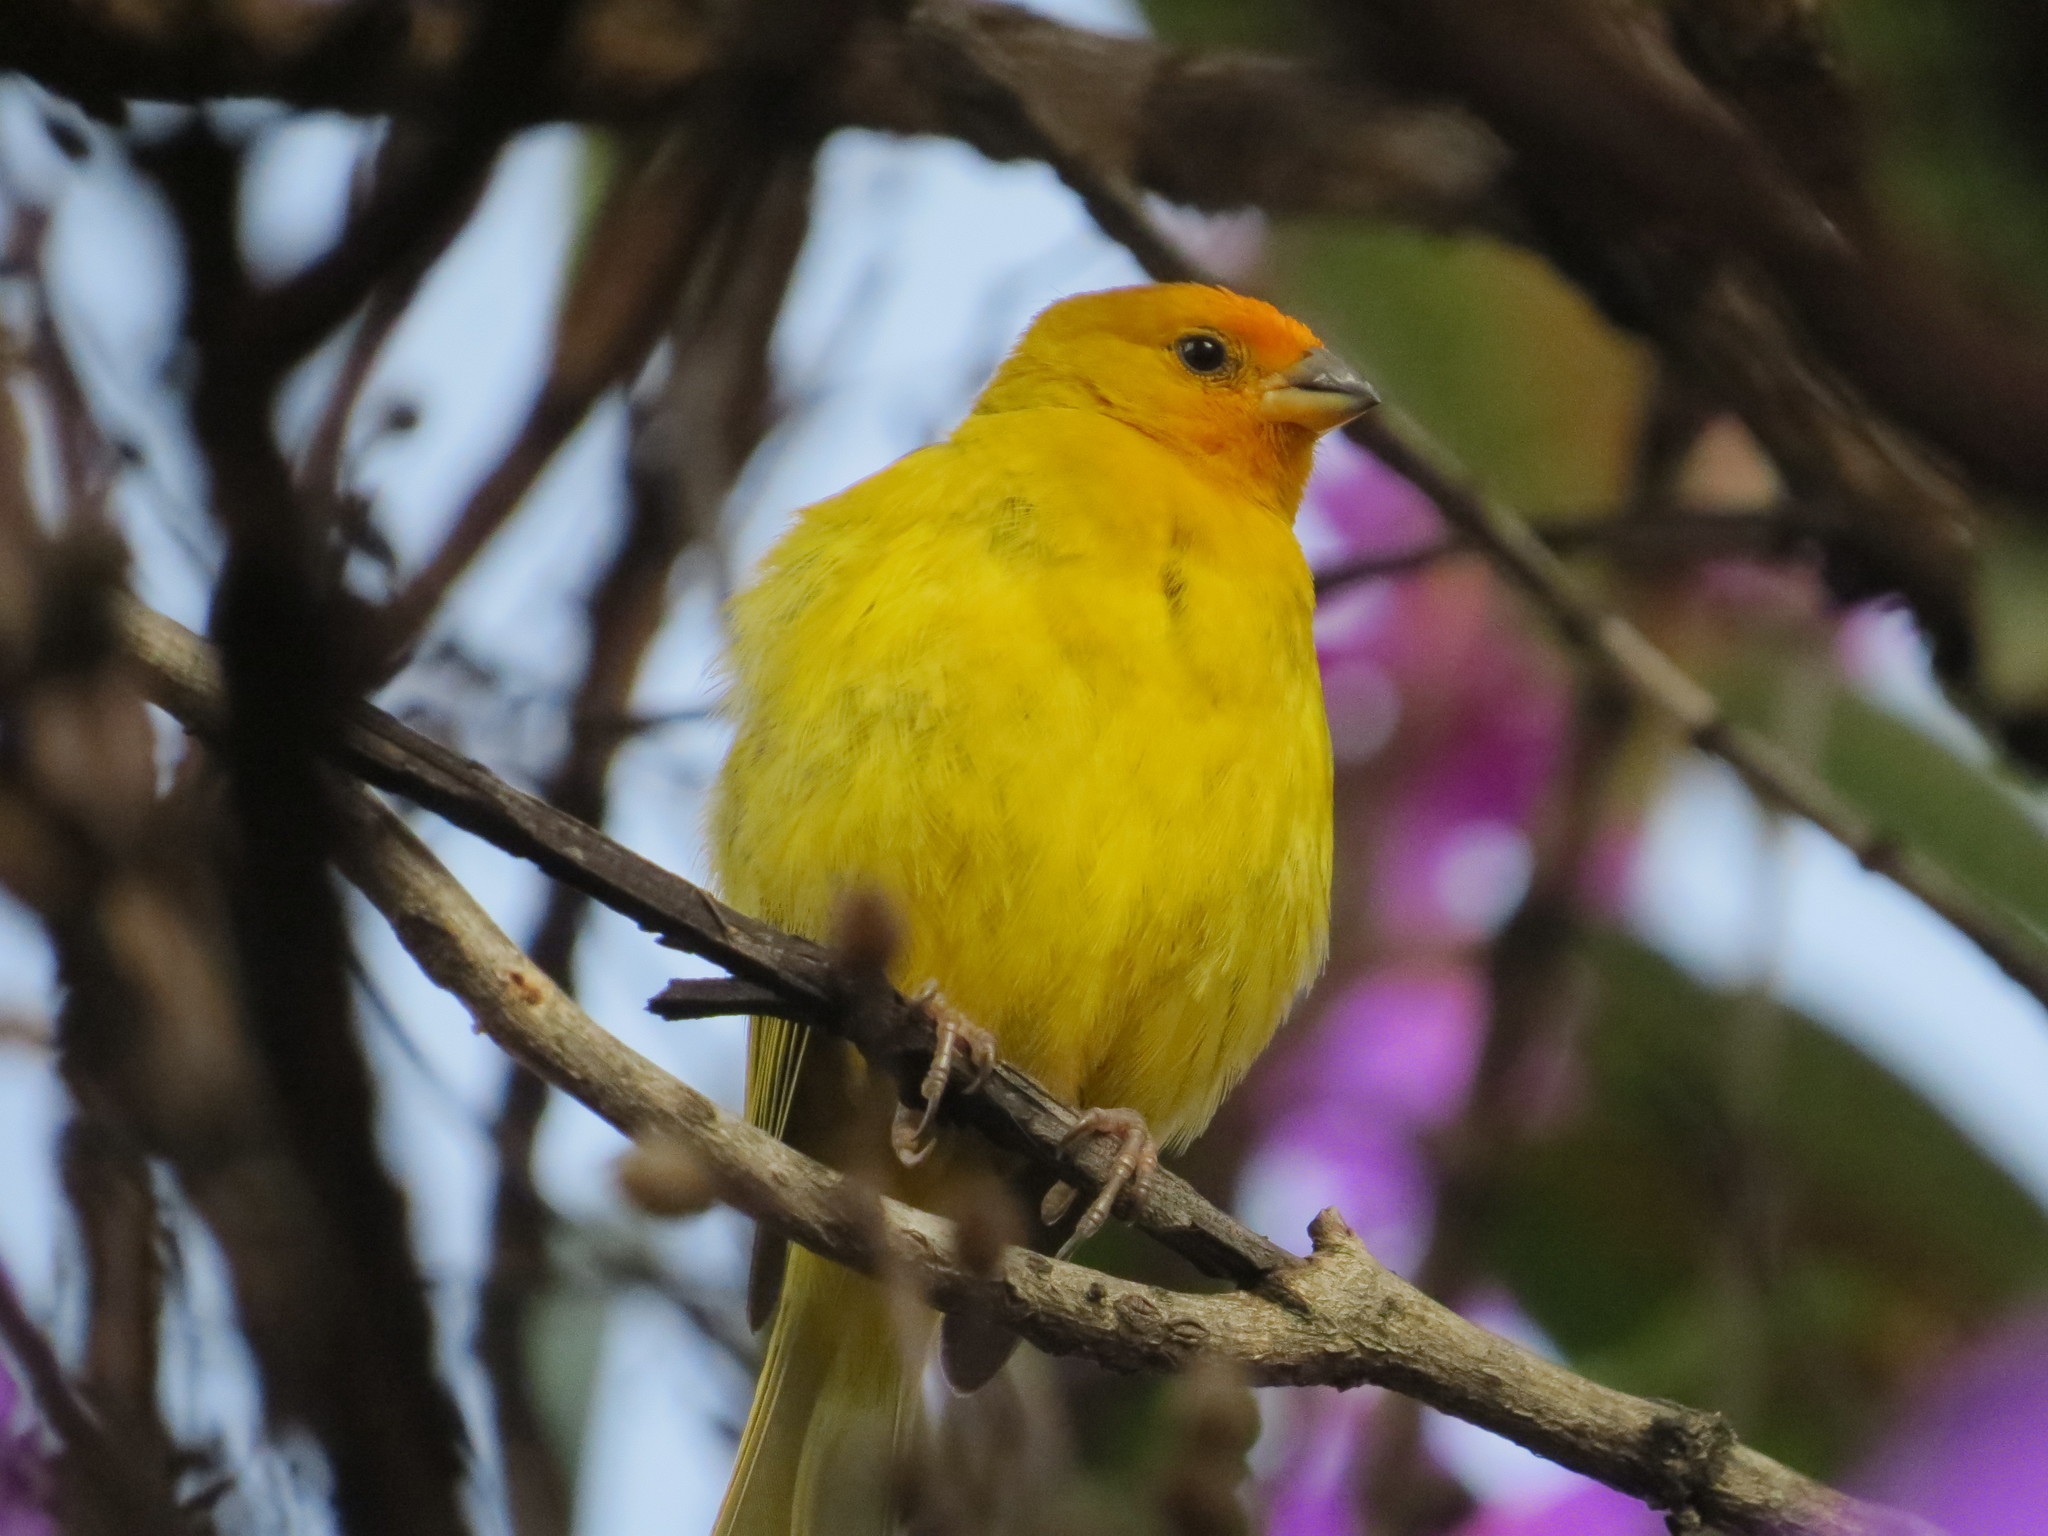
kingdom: Animalia
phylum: Chordata
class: Aves
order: Passeriformes
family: Thraupidae
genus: Sicalis
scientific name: Sicalis flaveola
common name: Saffron finch
